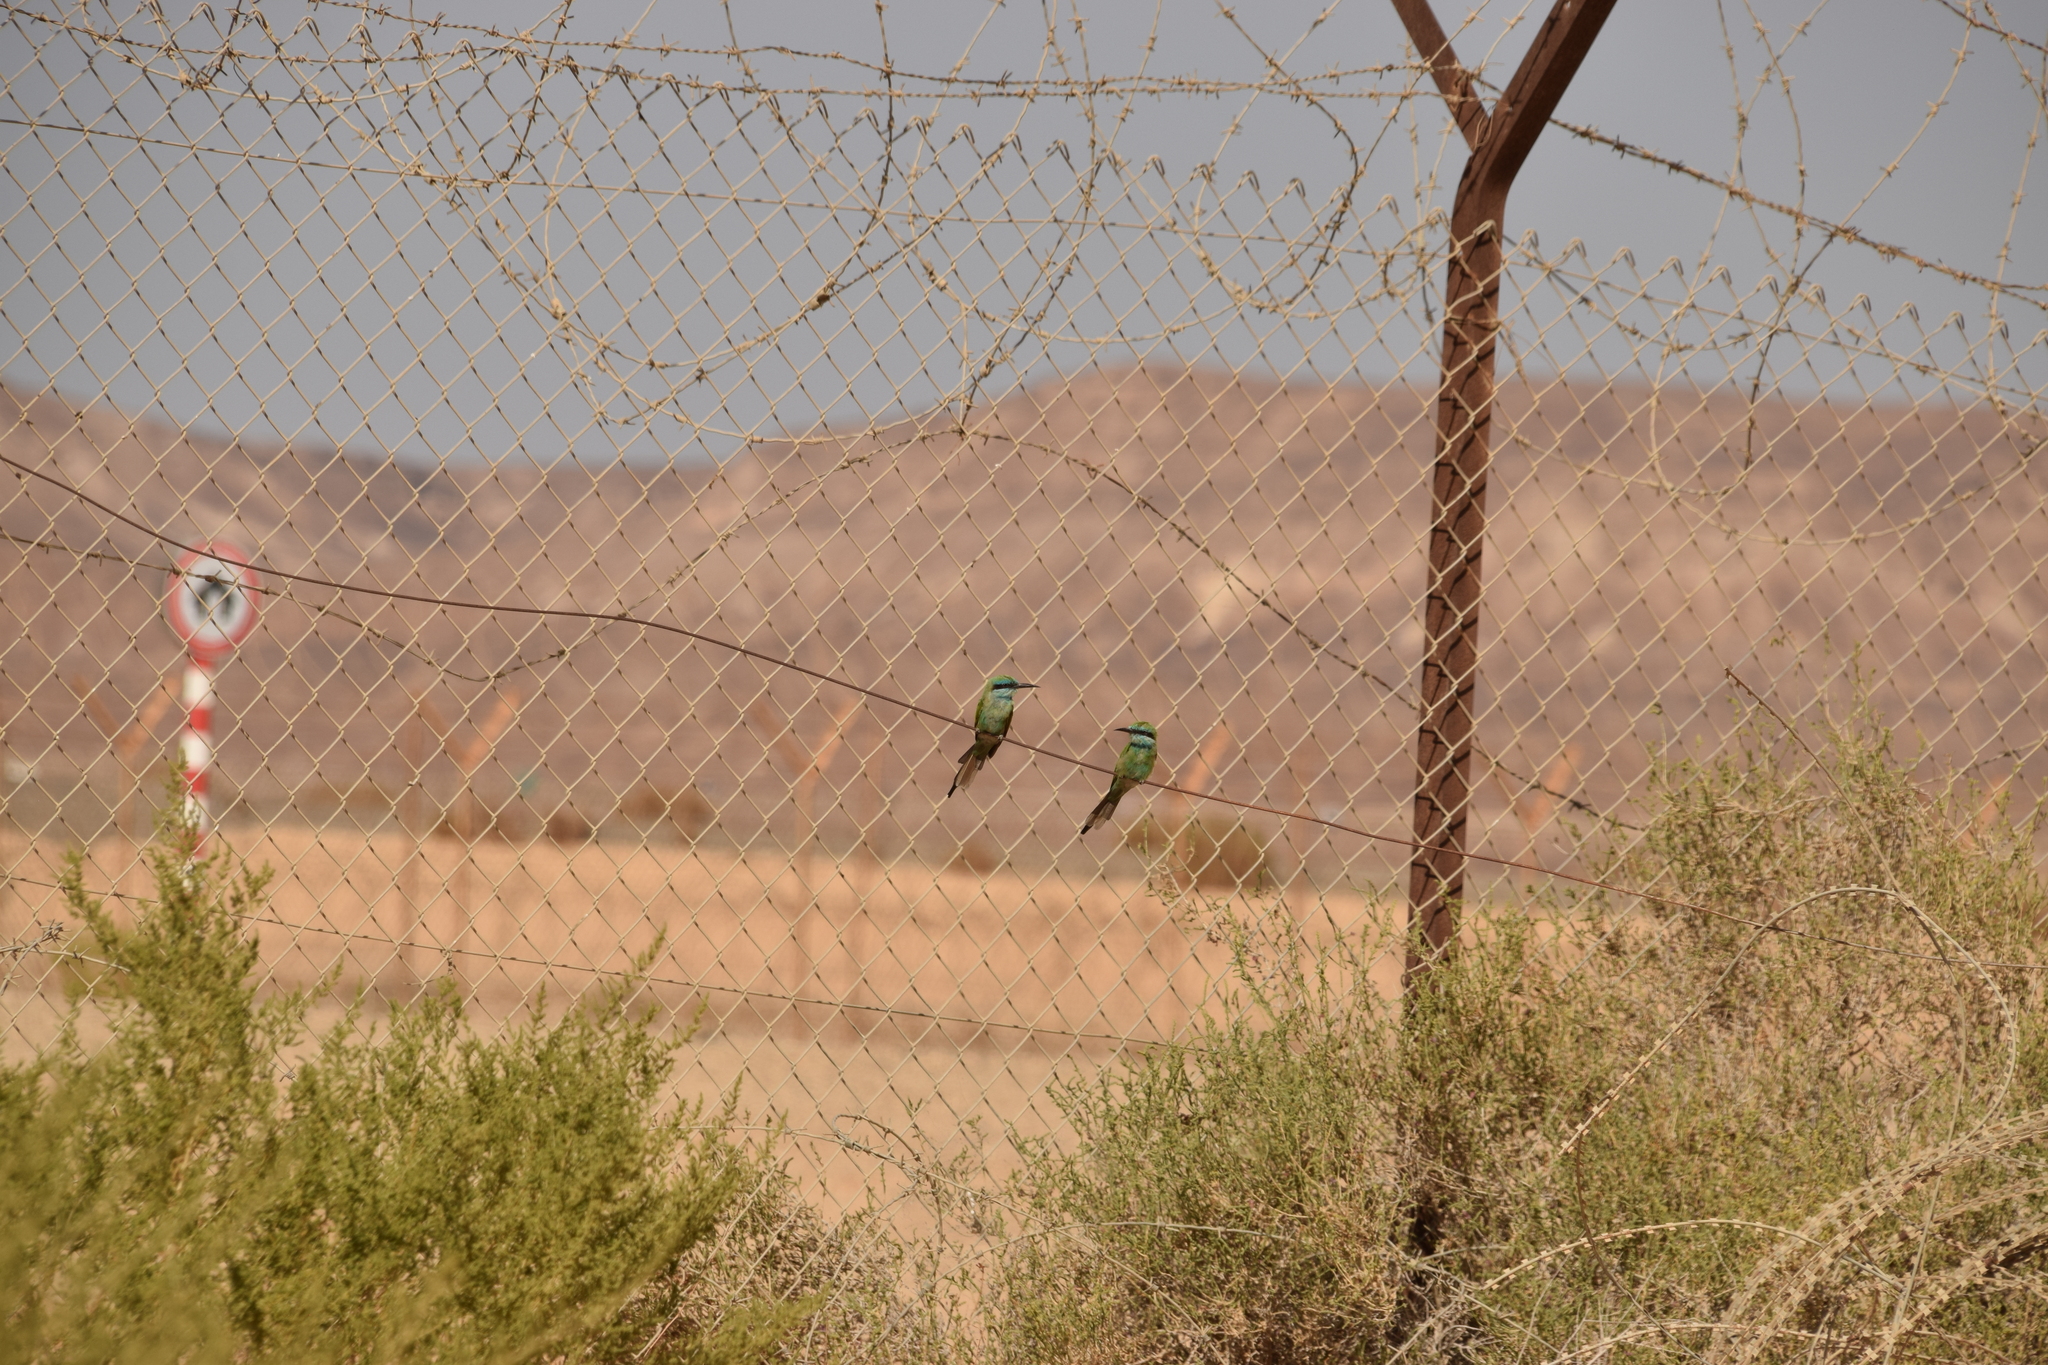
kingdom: Animalia
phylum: Chordata
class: Aves
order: Coraciiformes
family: Meropidae
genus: Merops
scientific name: Merops cyanophrys
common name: Arabian green bee-eater
